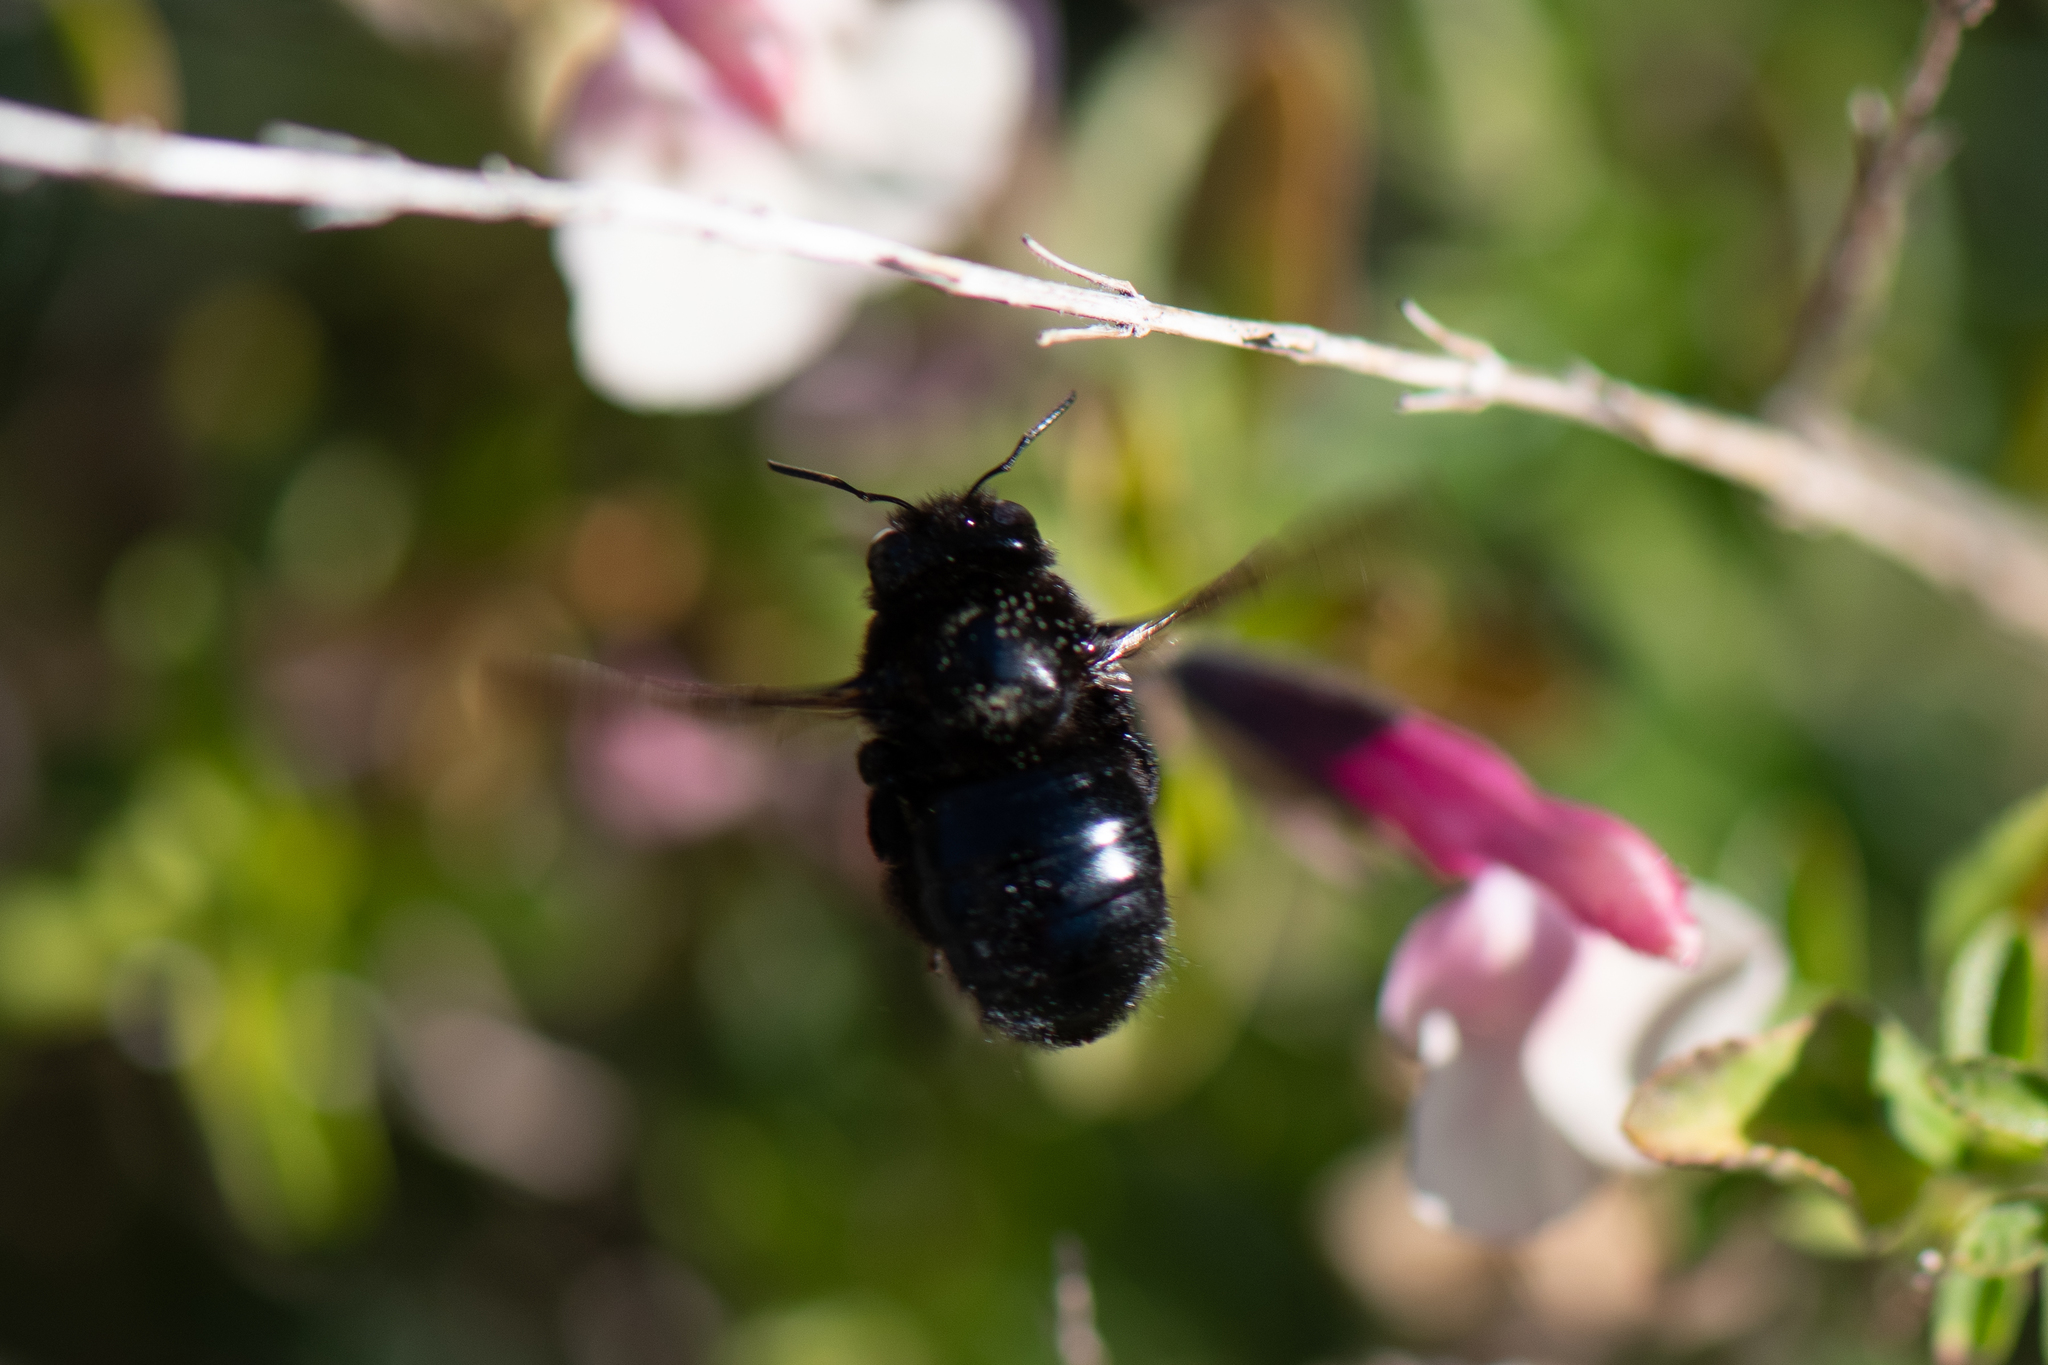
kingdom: Animalia
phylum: Arthropoda
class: Insecta
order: Hymenoptera
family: Apidae
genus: Xylocopa
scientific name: Xylocopa
